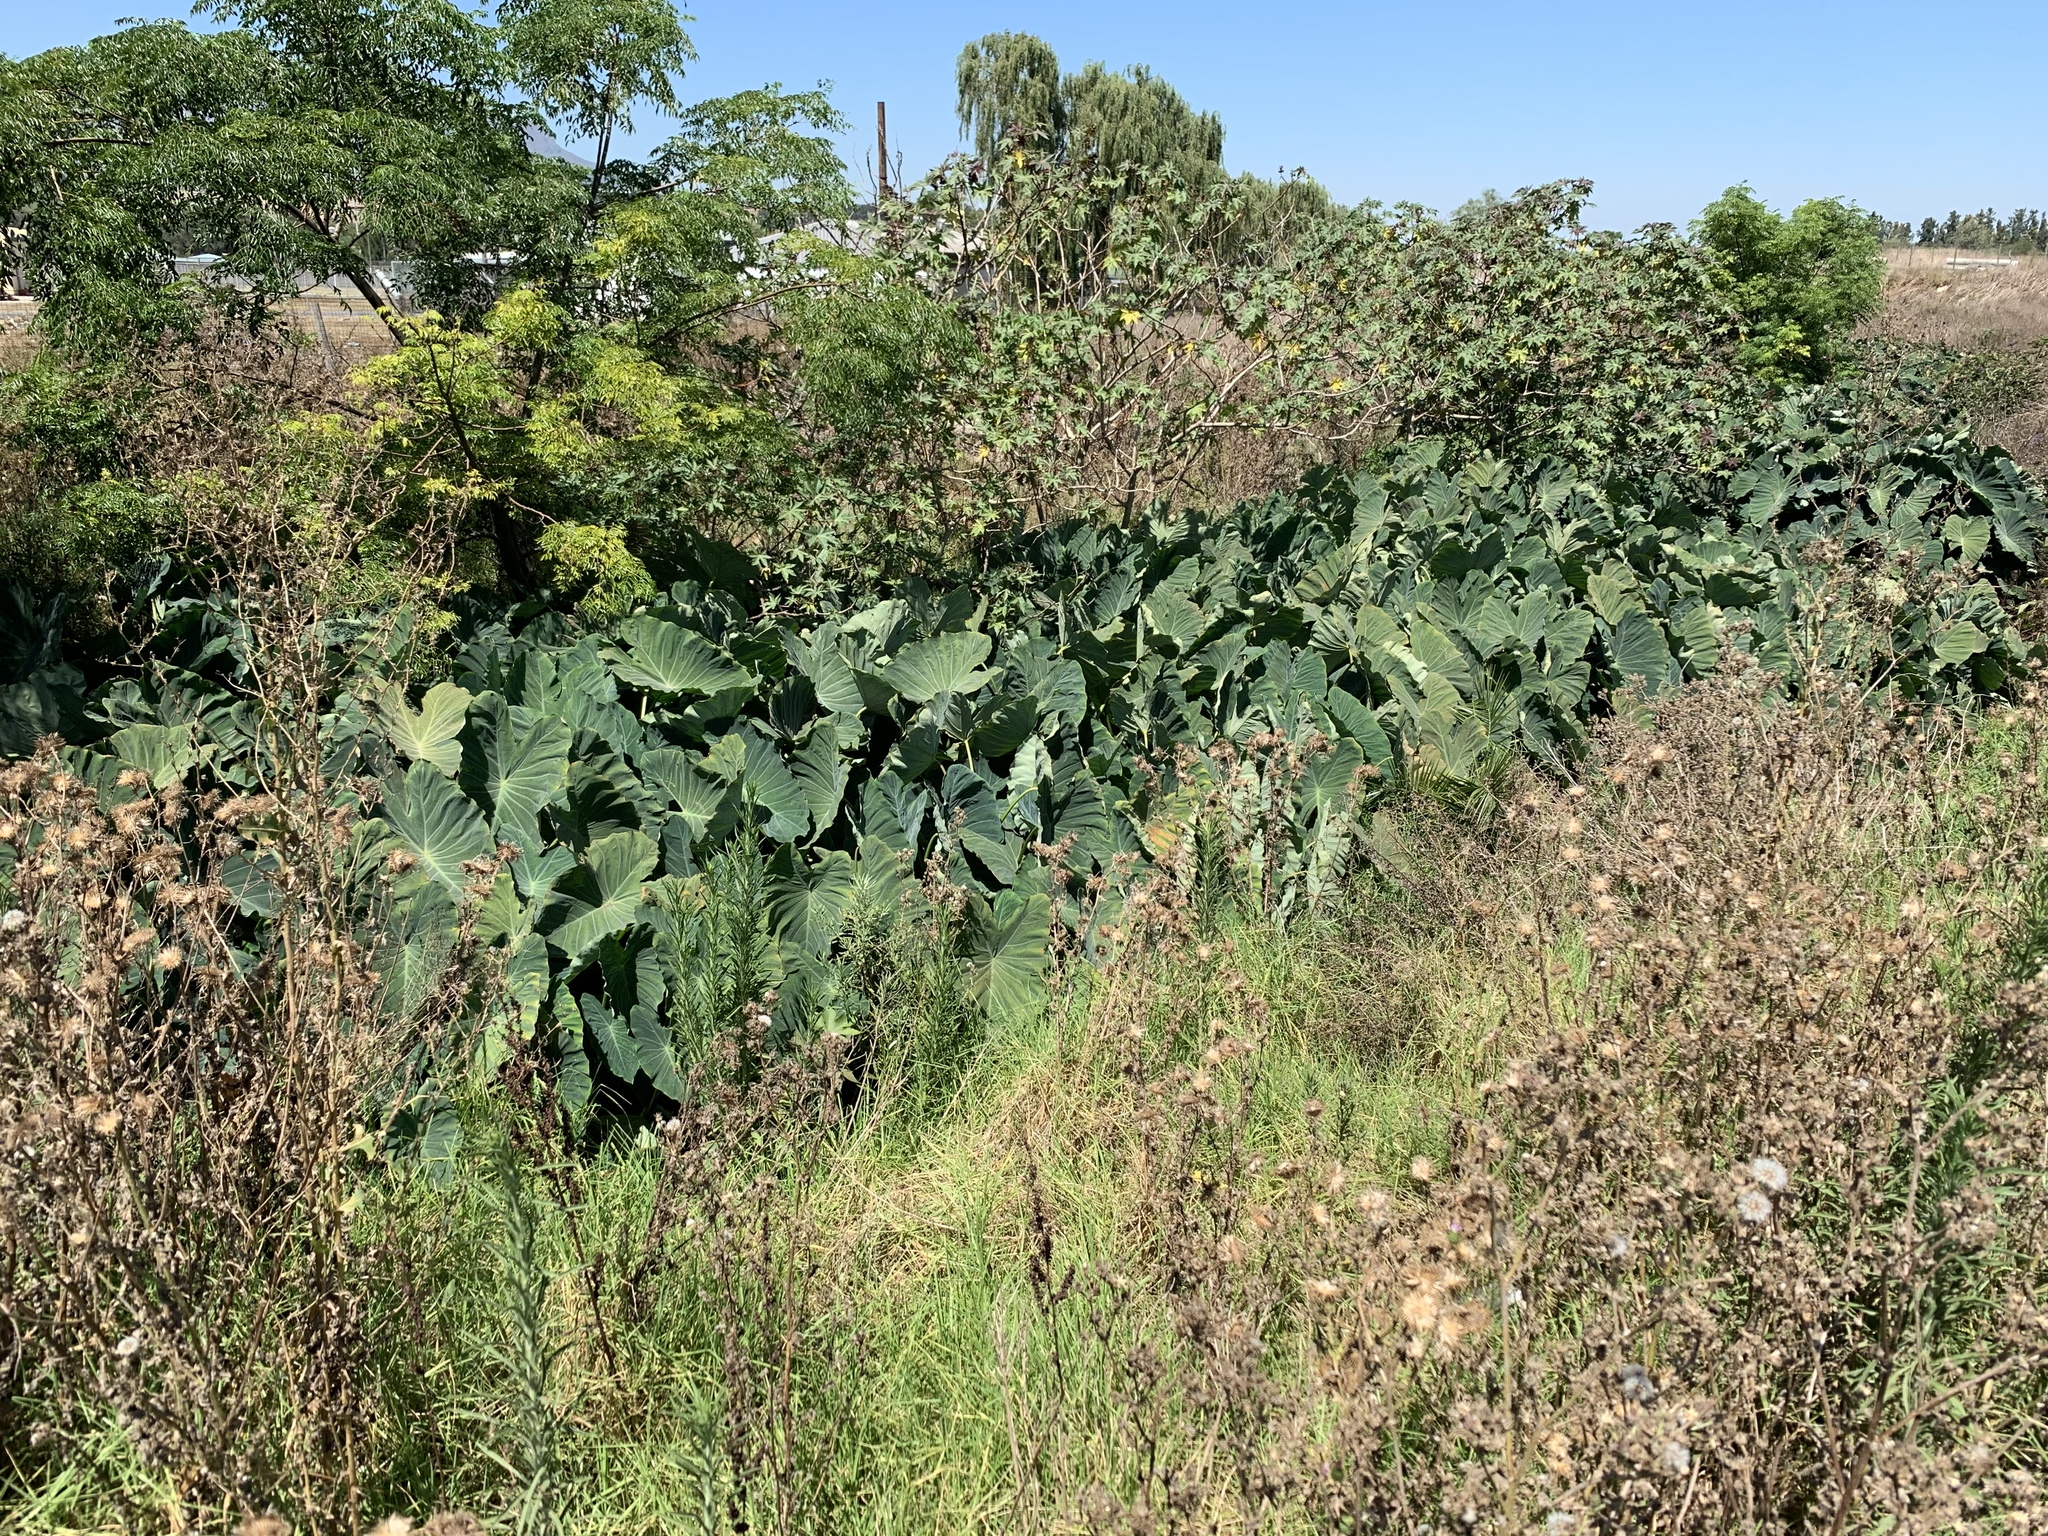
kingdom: Plantae
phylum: Tracheophyta
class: Liliopsida
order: Alismatales
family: Araceae
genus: Colocasia
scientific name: Colocasia esculenta
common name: Taro
